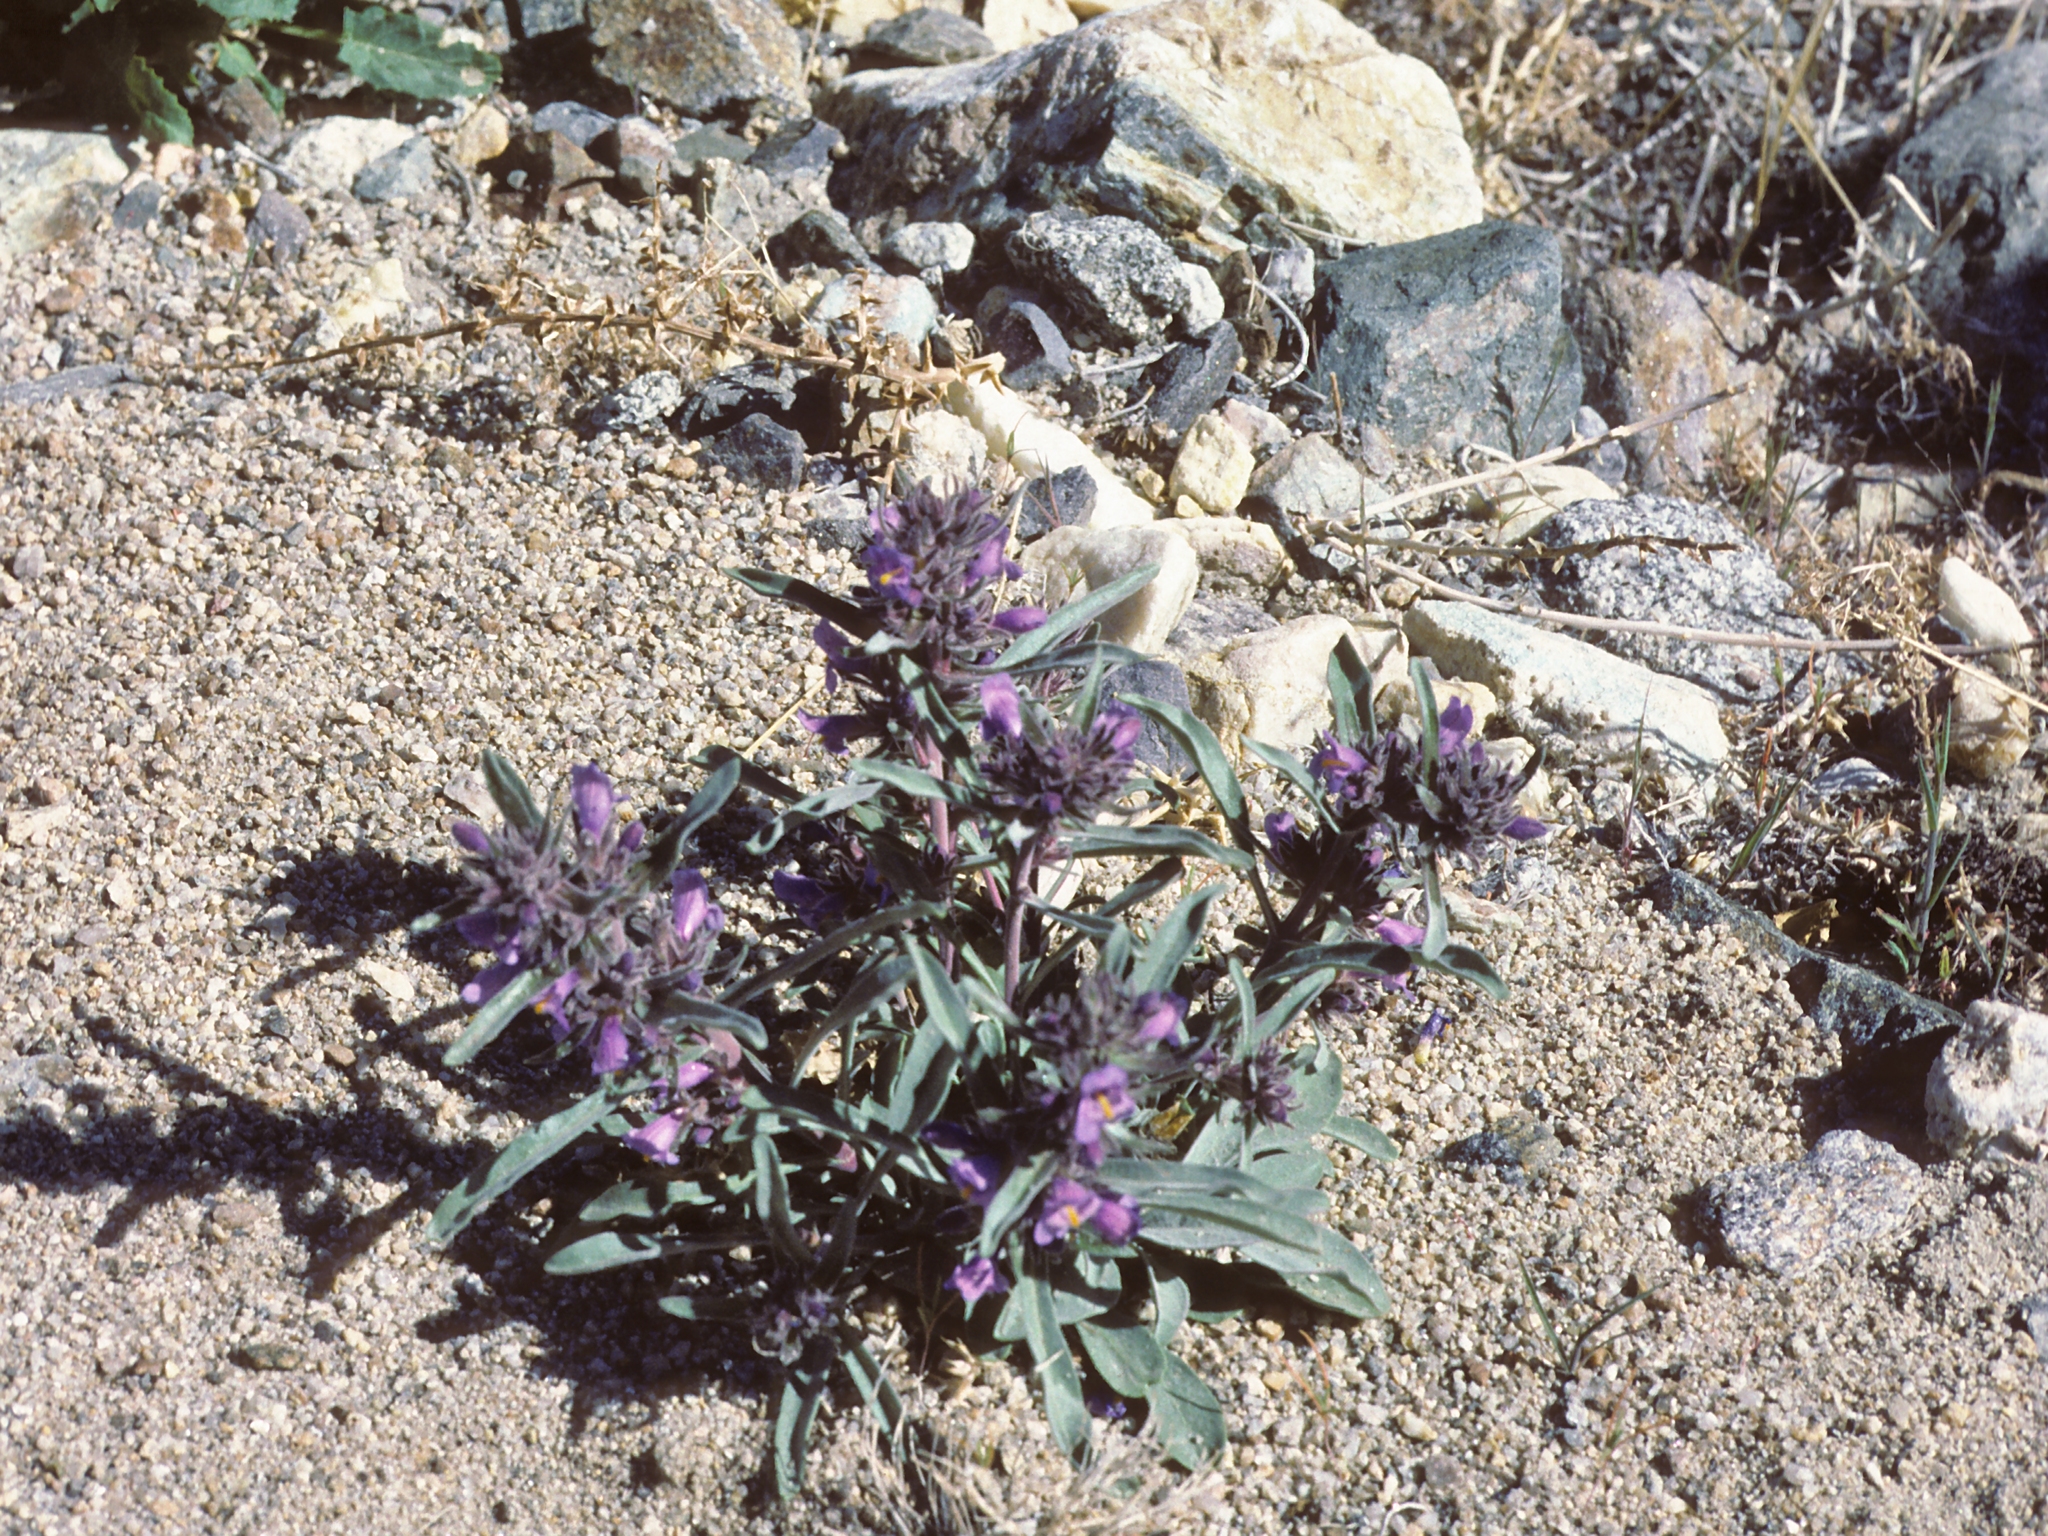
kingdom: Plantae
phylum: Tracheophyta
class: Magnoliopsida
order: Lamiales
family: Plantaginaceae
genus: Penstemon
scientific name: Penstemon barnebyi
